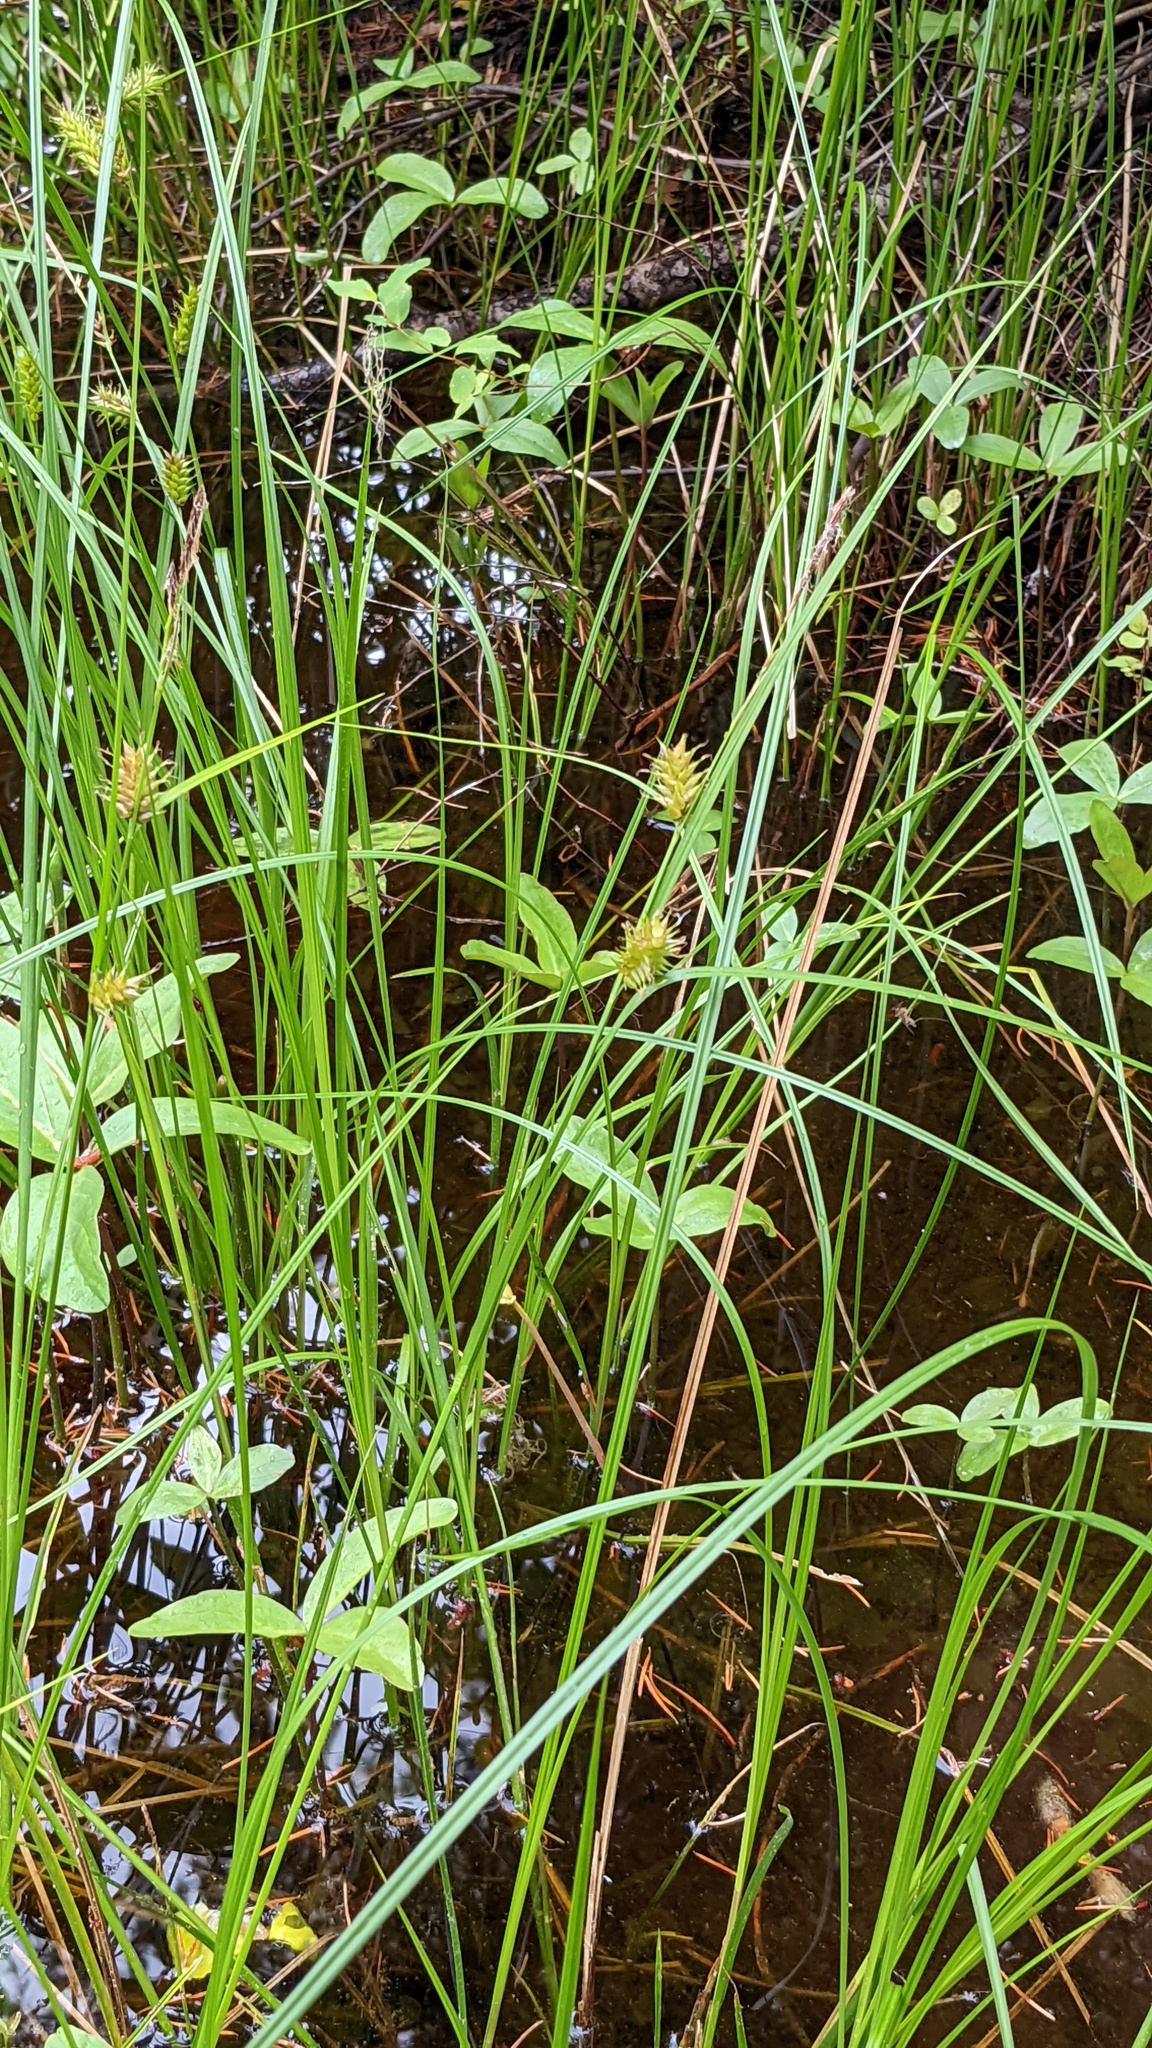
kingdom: Plantae
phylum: Tracheophyta
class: Liliopsida
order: Poales
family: Cyperaceae
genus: Carex
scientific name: Carex vesicaria
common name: Bladder-sedge
